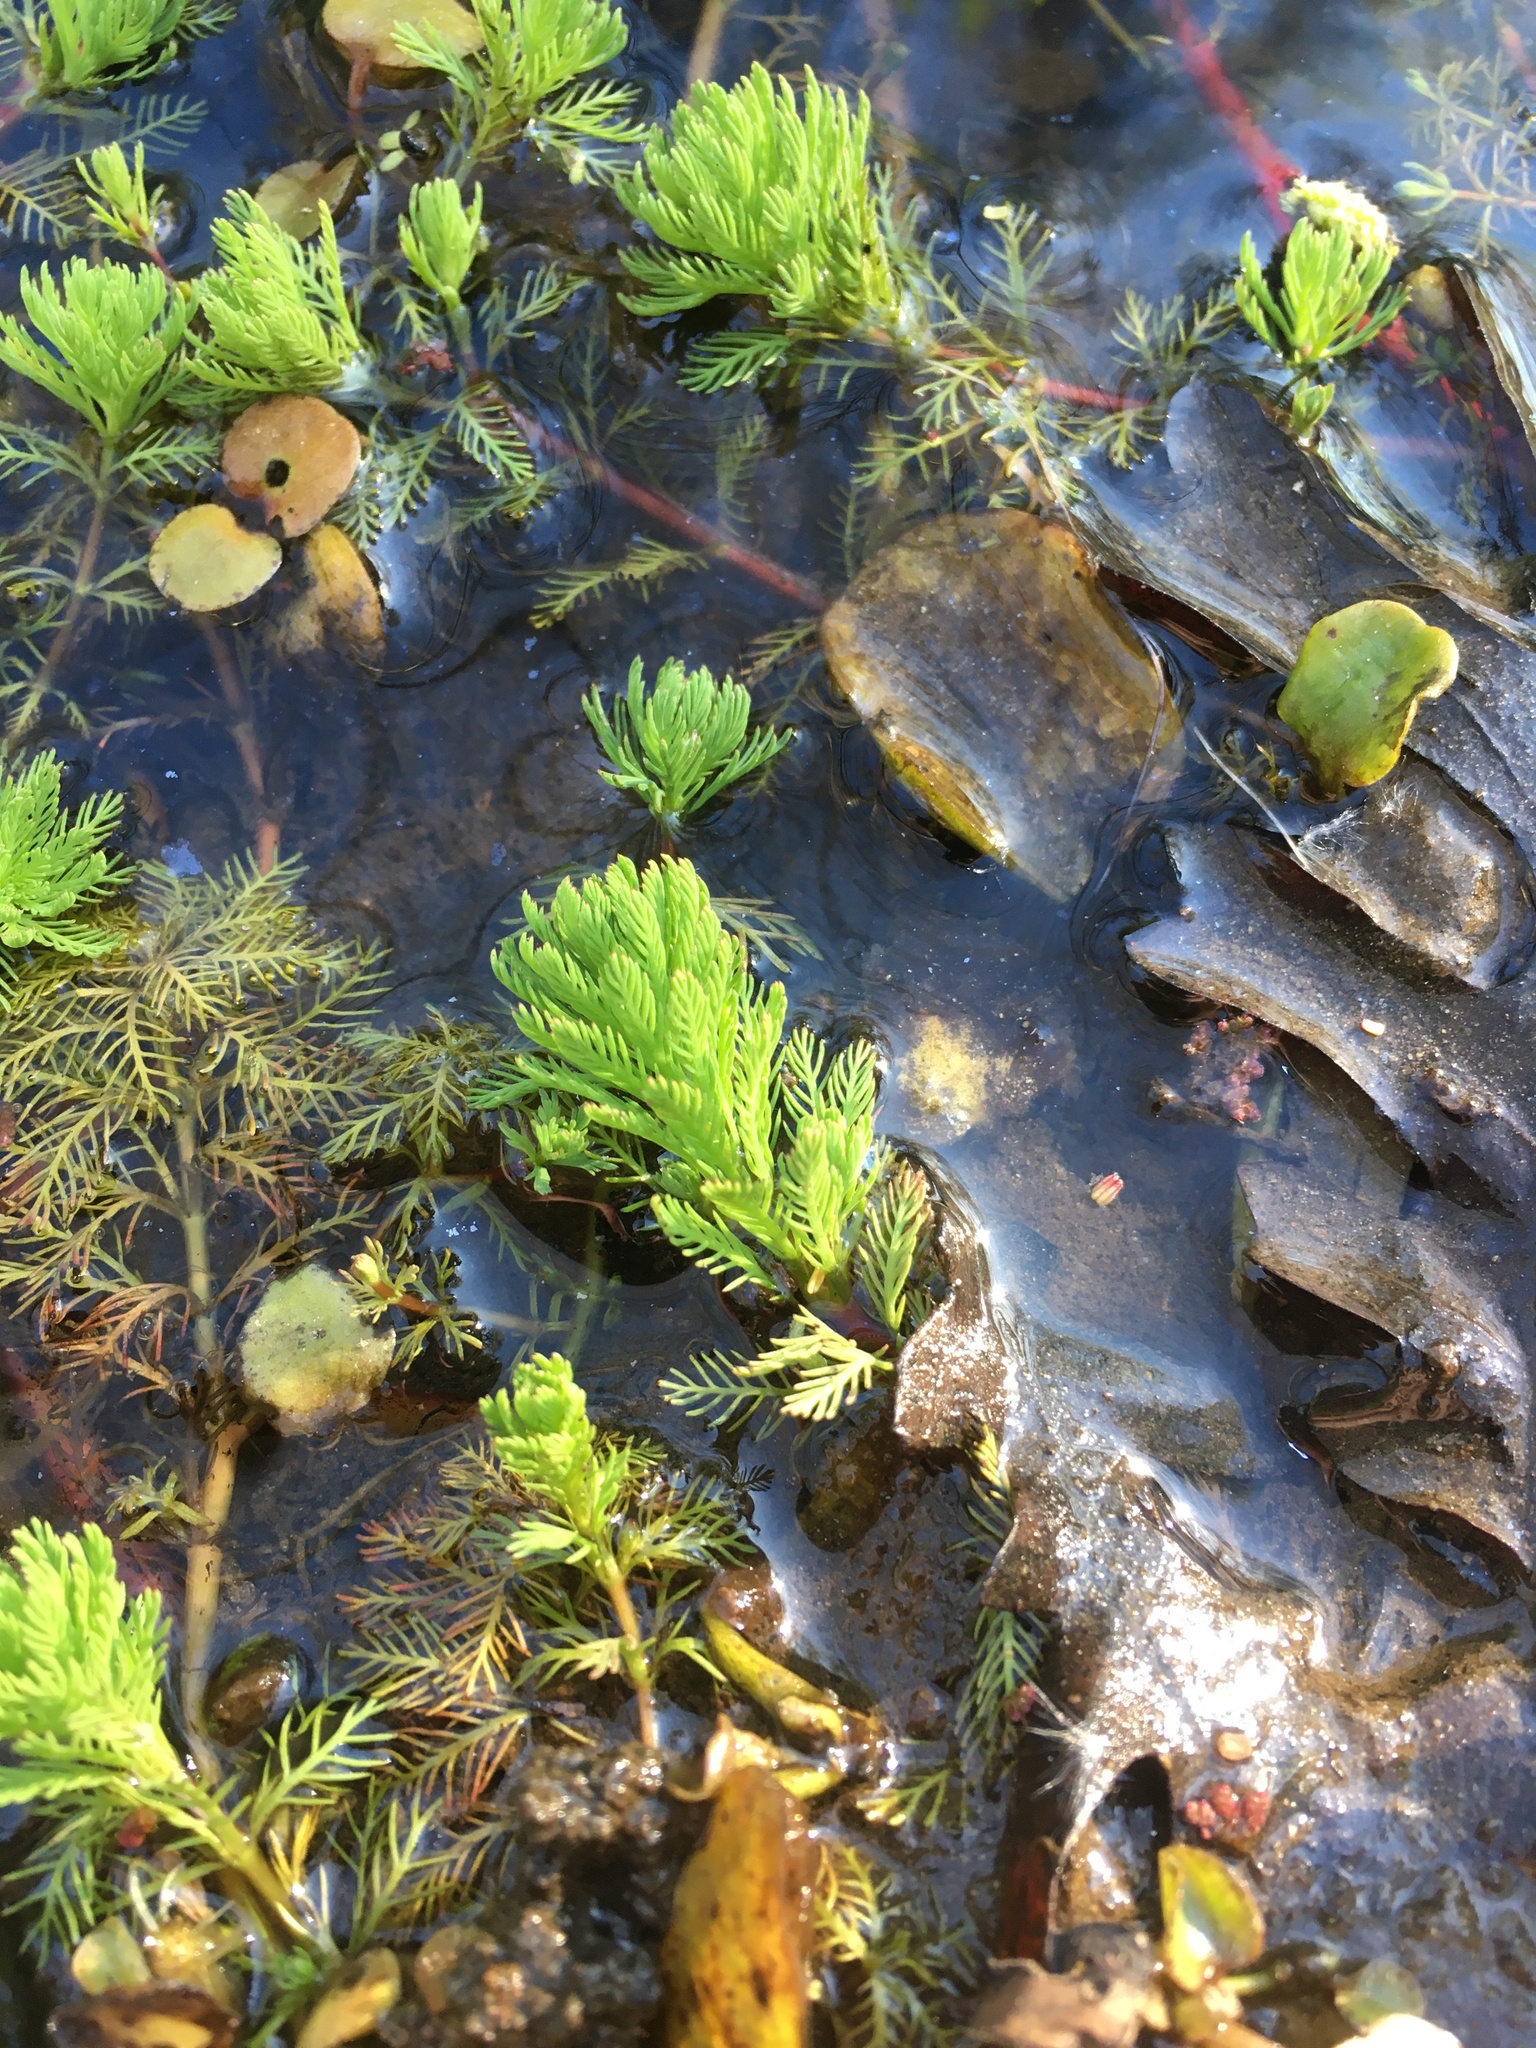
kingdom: Plantae
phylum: Tracheophyta
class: Magnoliopsida
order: Saxifragales
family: Haloragaceae
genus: Myriophyllum
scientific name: Myriophyllum aquaticum
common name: Parrot's feather
